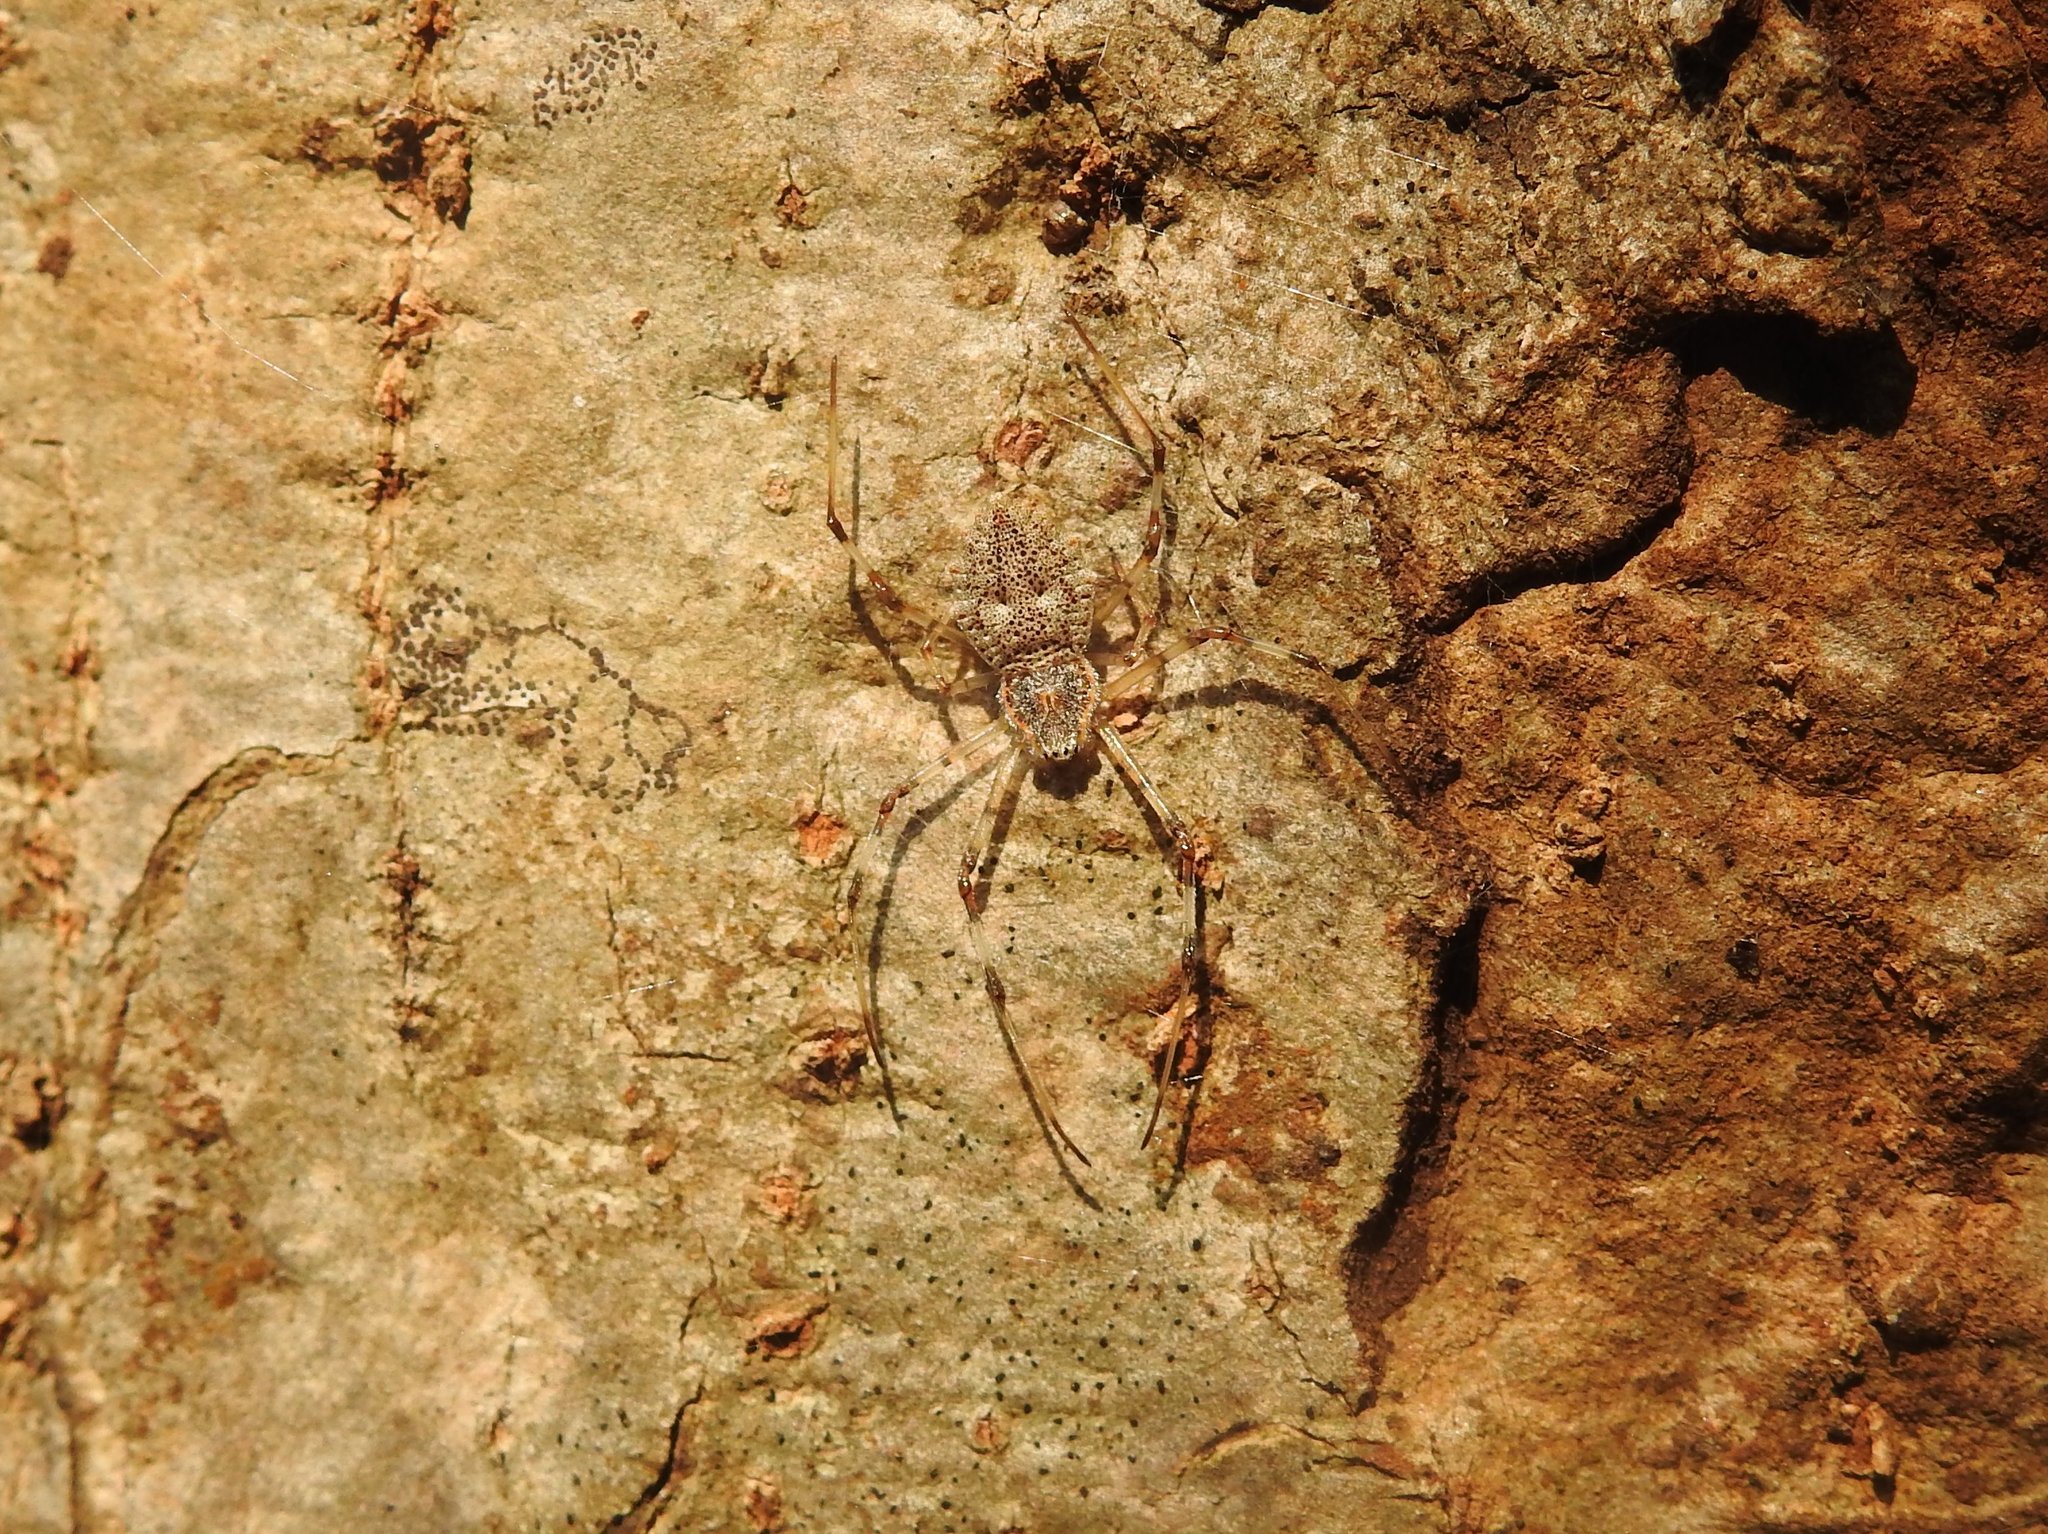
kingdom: Animalia
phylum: Arthropoda
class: Arachnida
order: Araneae
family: Araneidae
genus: Herennia
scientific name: Herennia multipuncta
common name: Spotted coin spider
